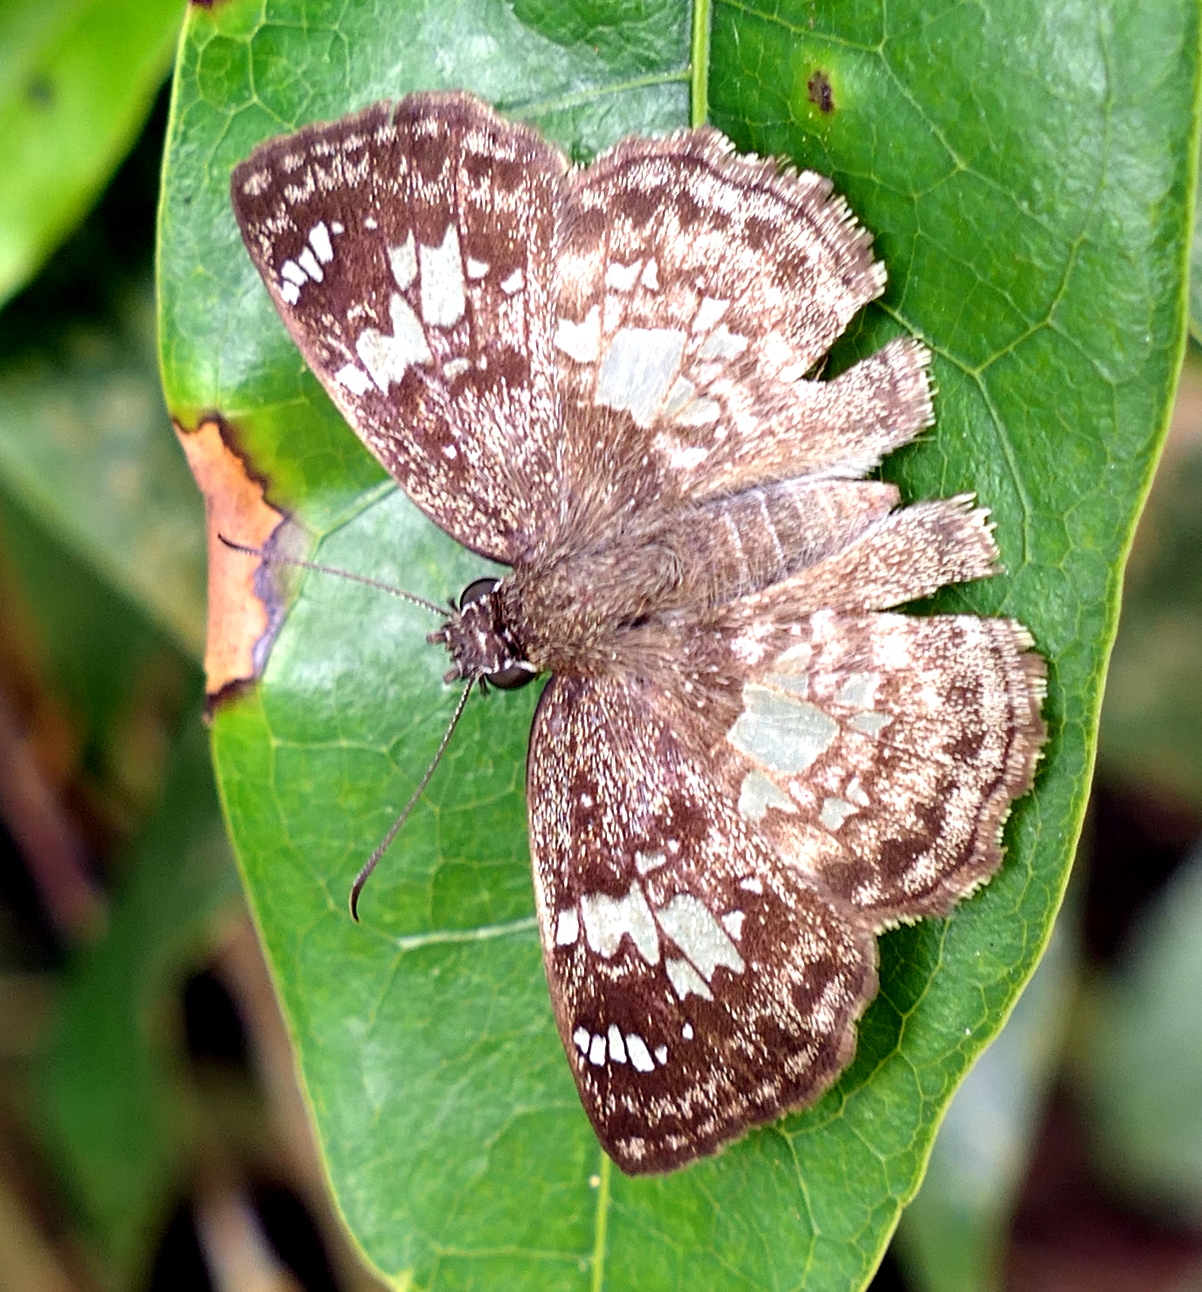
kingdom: Animalia
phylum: Arthropoda
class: Insecta
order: Lepidoptera
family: Hesperiidae
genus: Xenophanes
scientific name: Xenophanes tryxus
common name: Glassy-winged skipper
